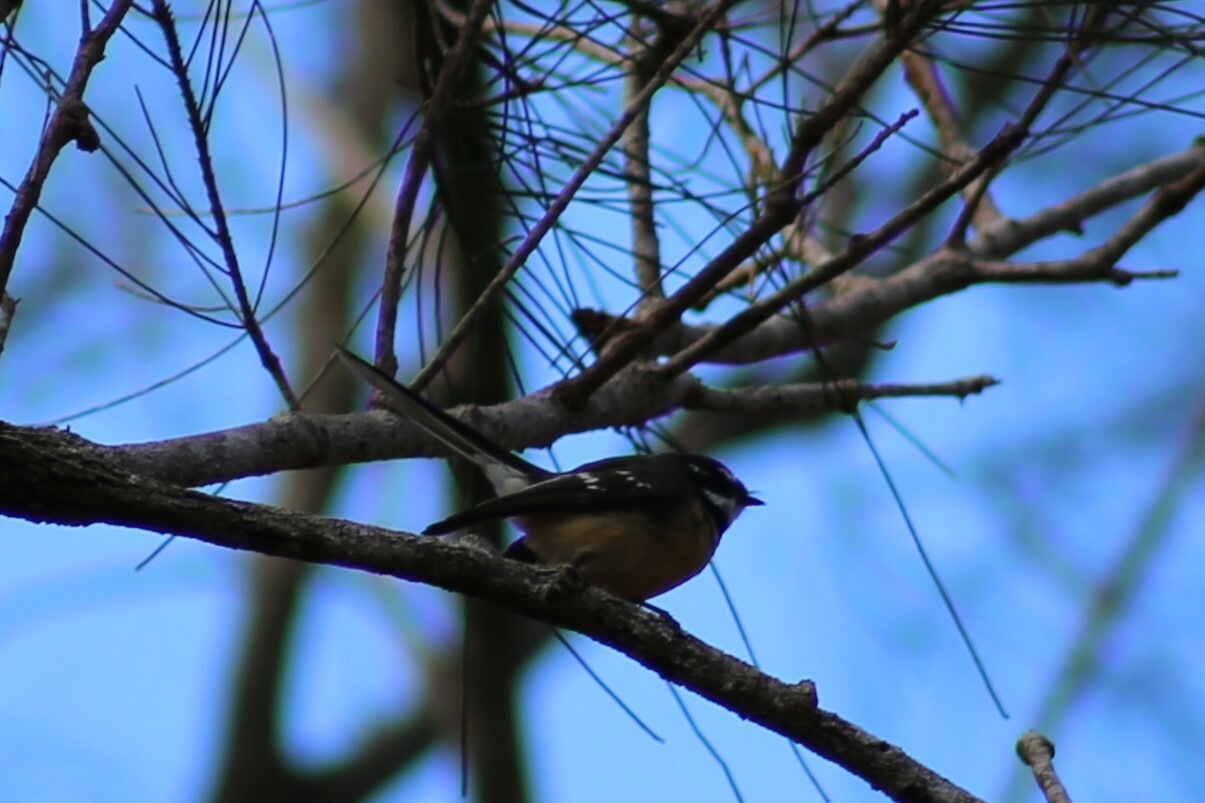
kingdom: Animalia
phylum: Chordata
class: Aves
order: Passeriformes
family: Rhipiduridae
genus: Rhipidura
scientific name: Rhipidura albiscapa
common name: Grey fantail
